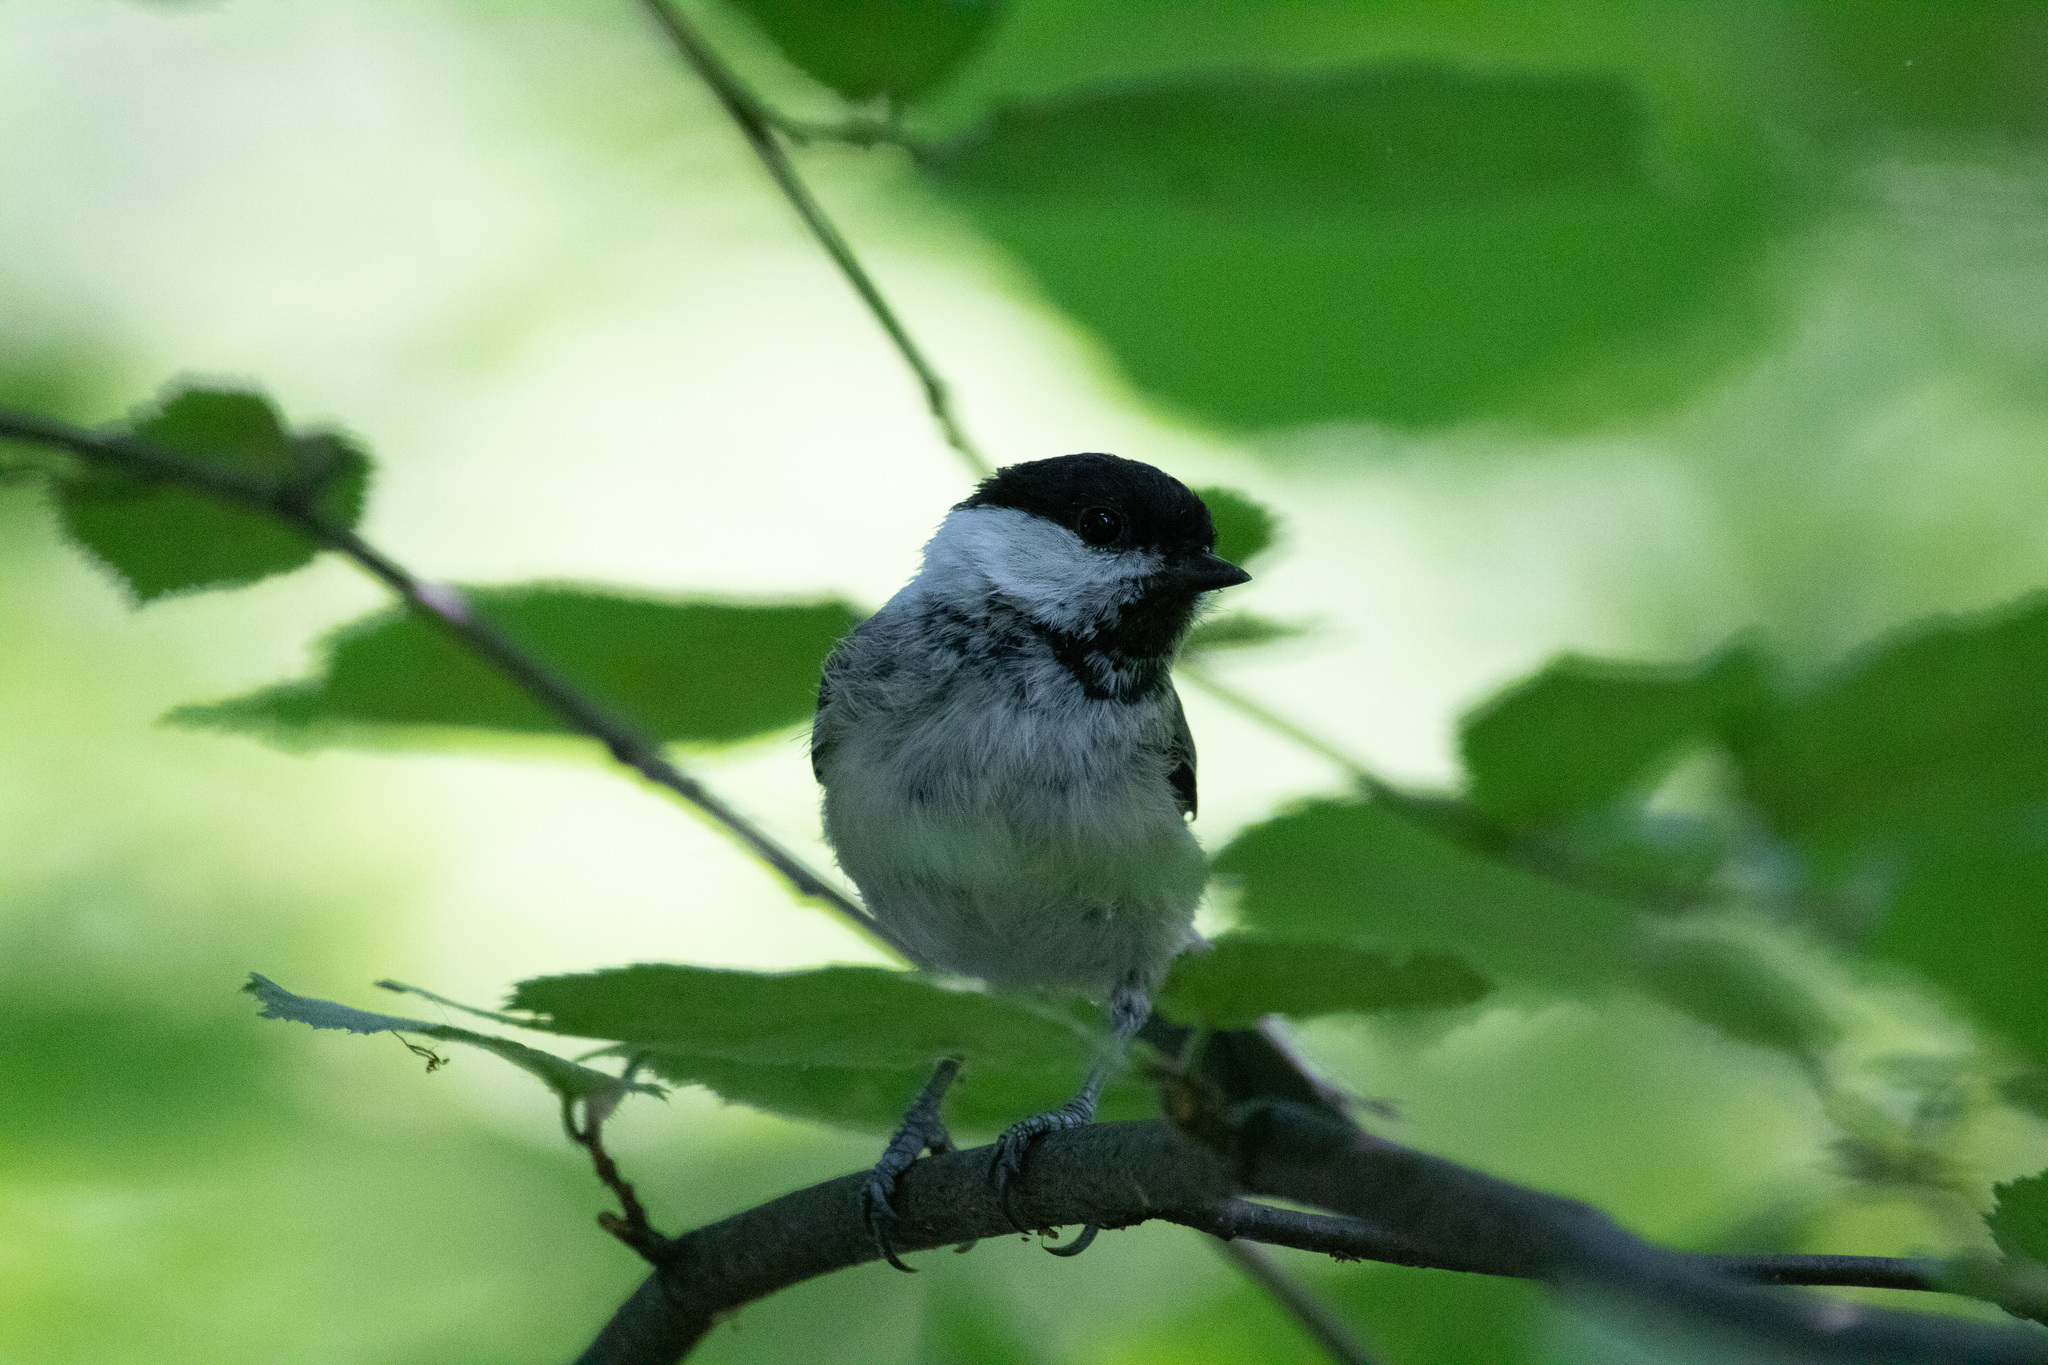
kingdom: Animalia
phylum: Chordata
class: Aves
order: Passeriformes
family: Paridae
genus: Poecile
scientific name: Poecile montanus
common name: Willow tit
